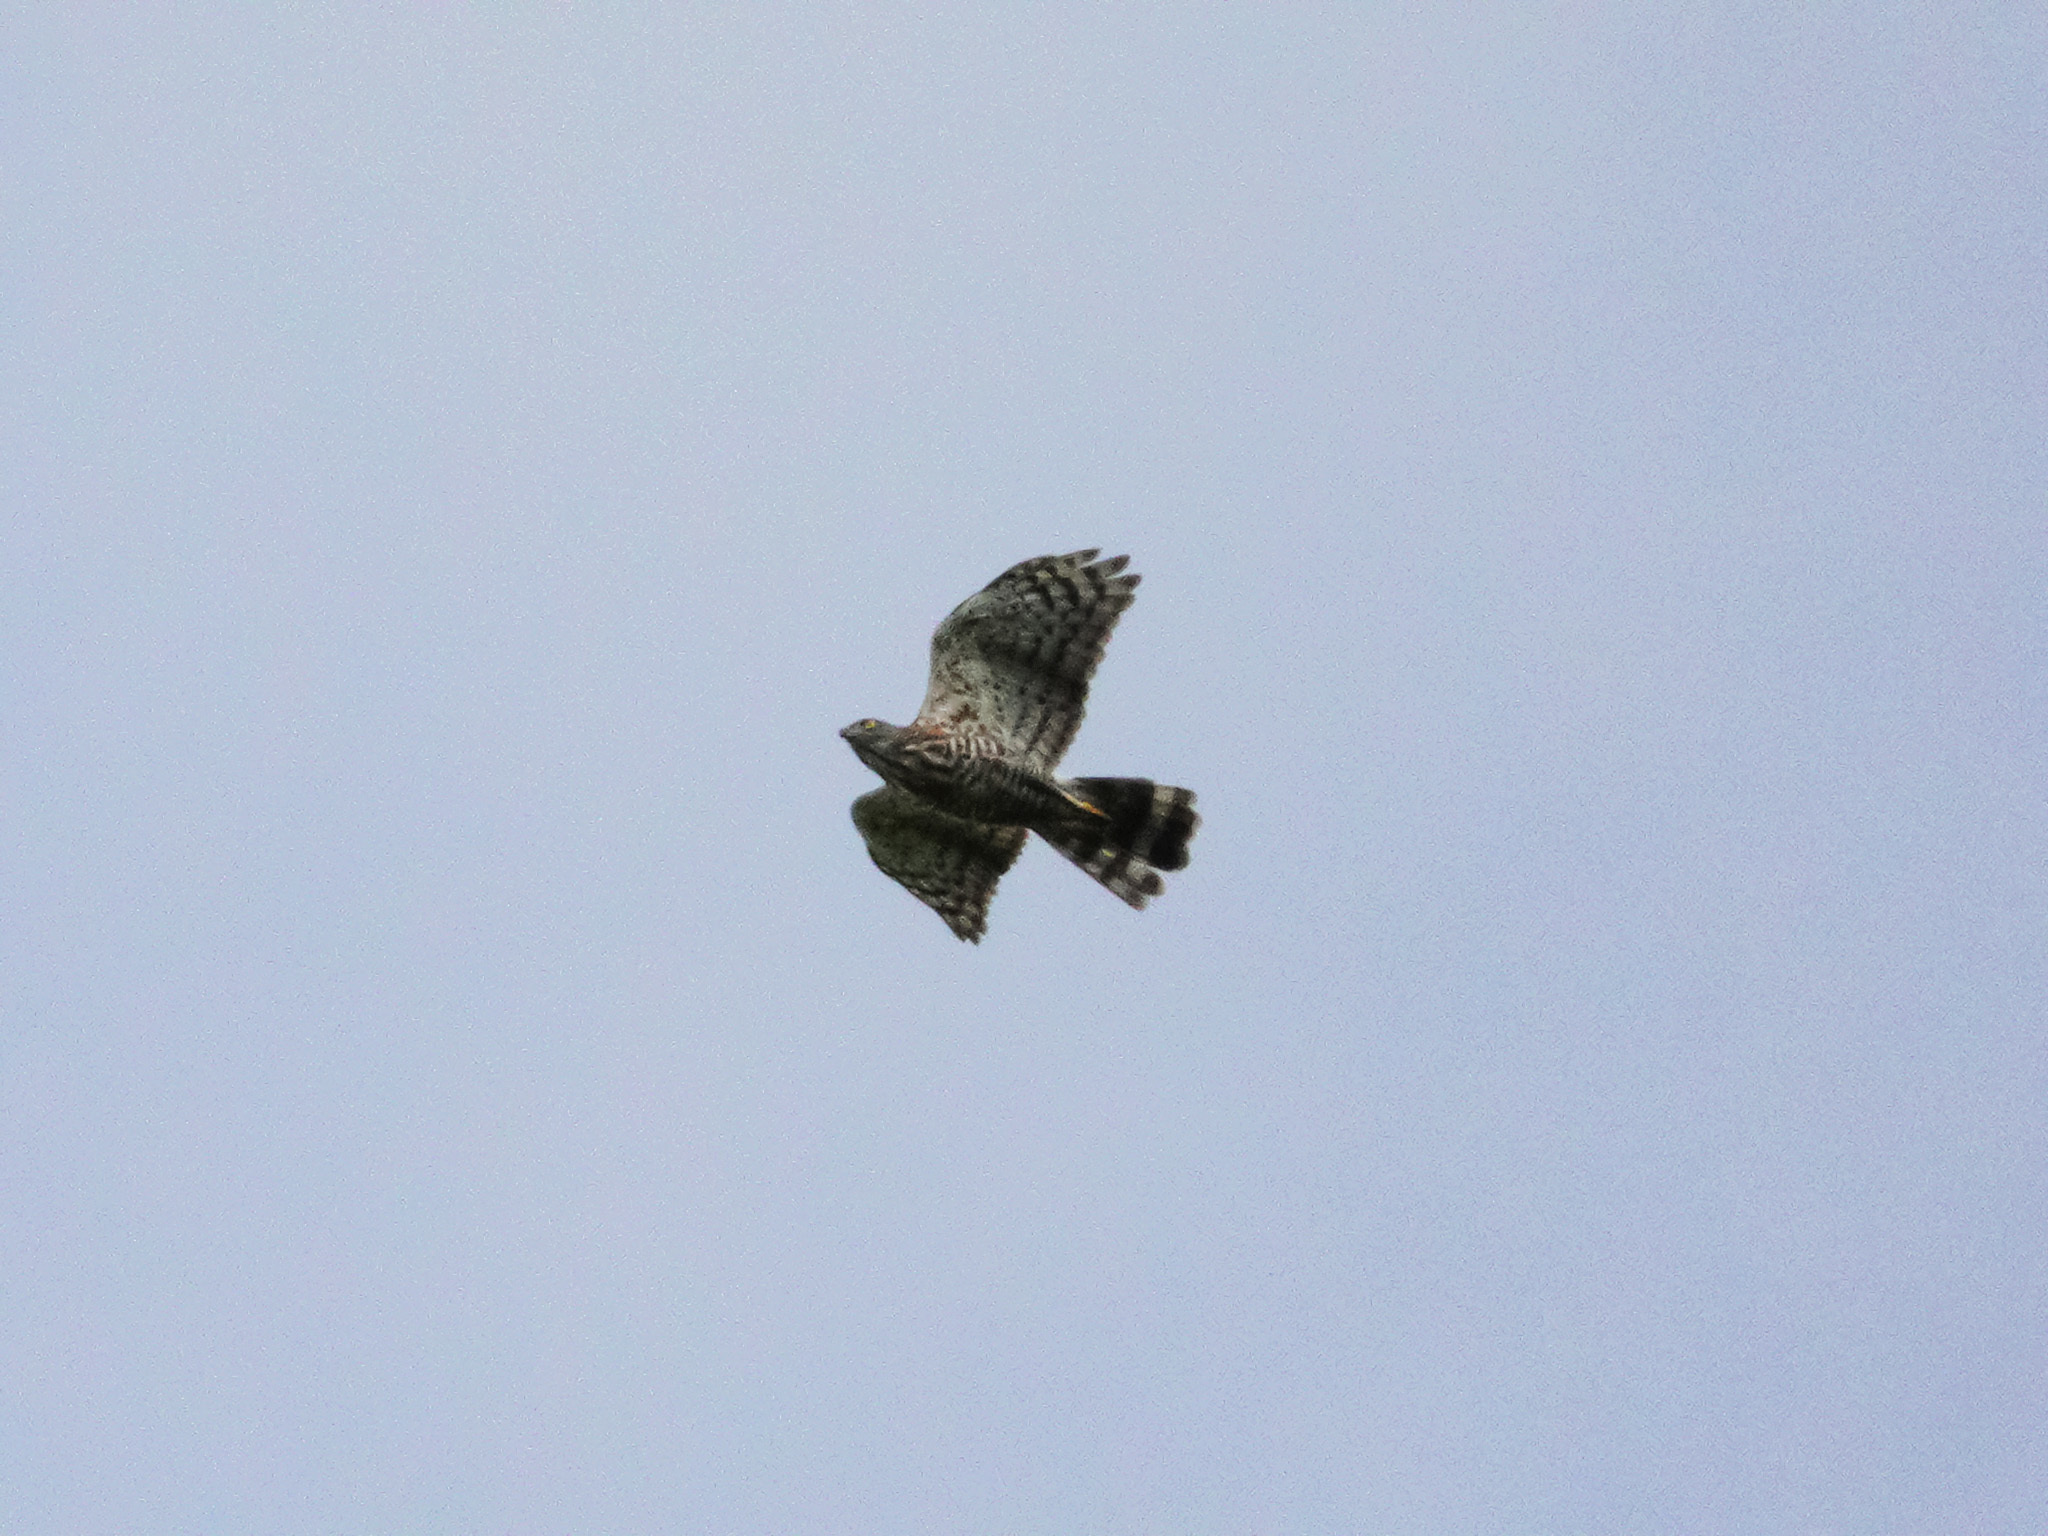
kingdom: Animalia
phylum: Chordata
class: Aves
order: Accipitriformes
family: Accipitridae
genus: Accipiter
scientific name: Accipiter trivirgatus
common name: Crested goshawk
